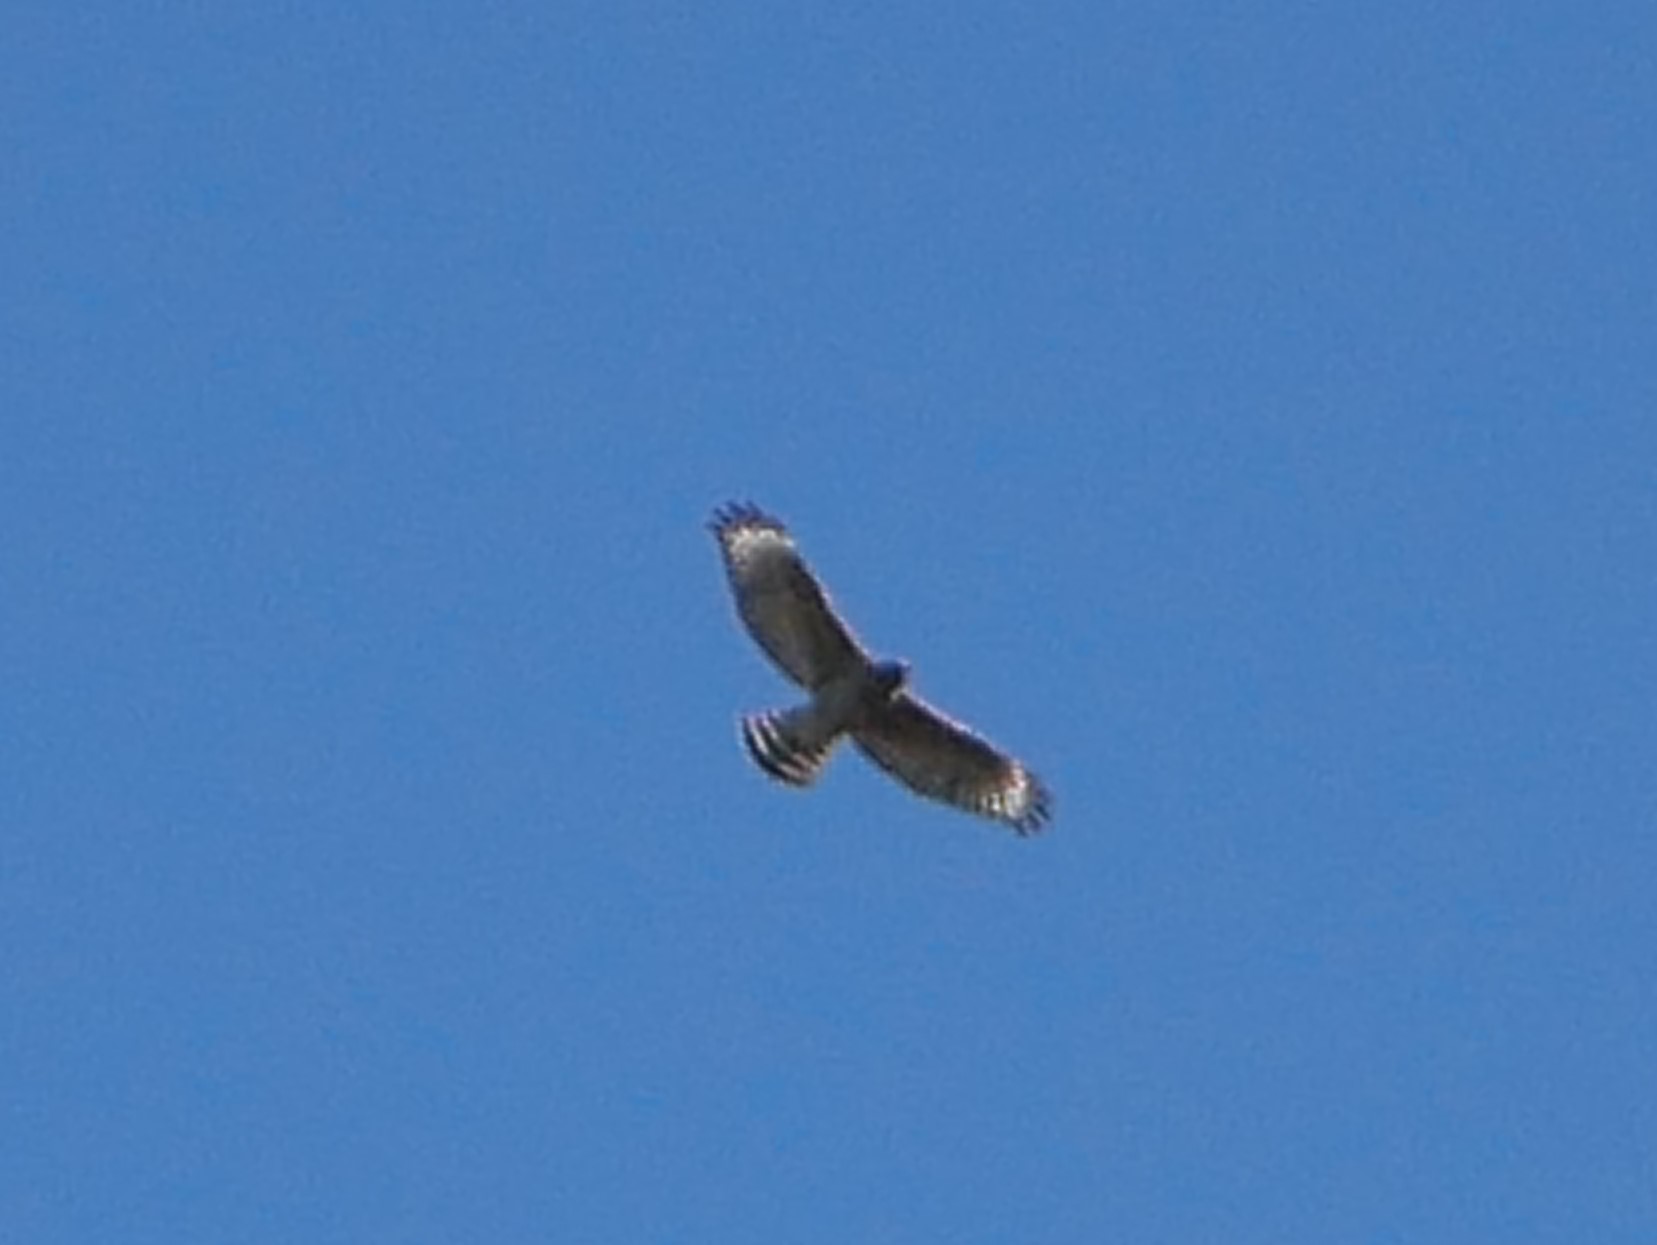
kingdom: Animalia
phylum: Chordata
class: Aves
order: Accipitriformes
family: Accipitridae
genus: Buteo
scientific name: Buteo lineatus
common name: Red-shouldered hawk
